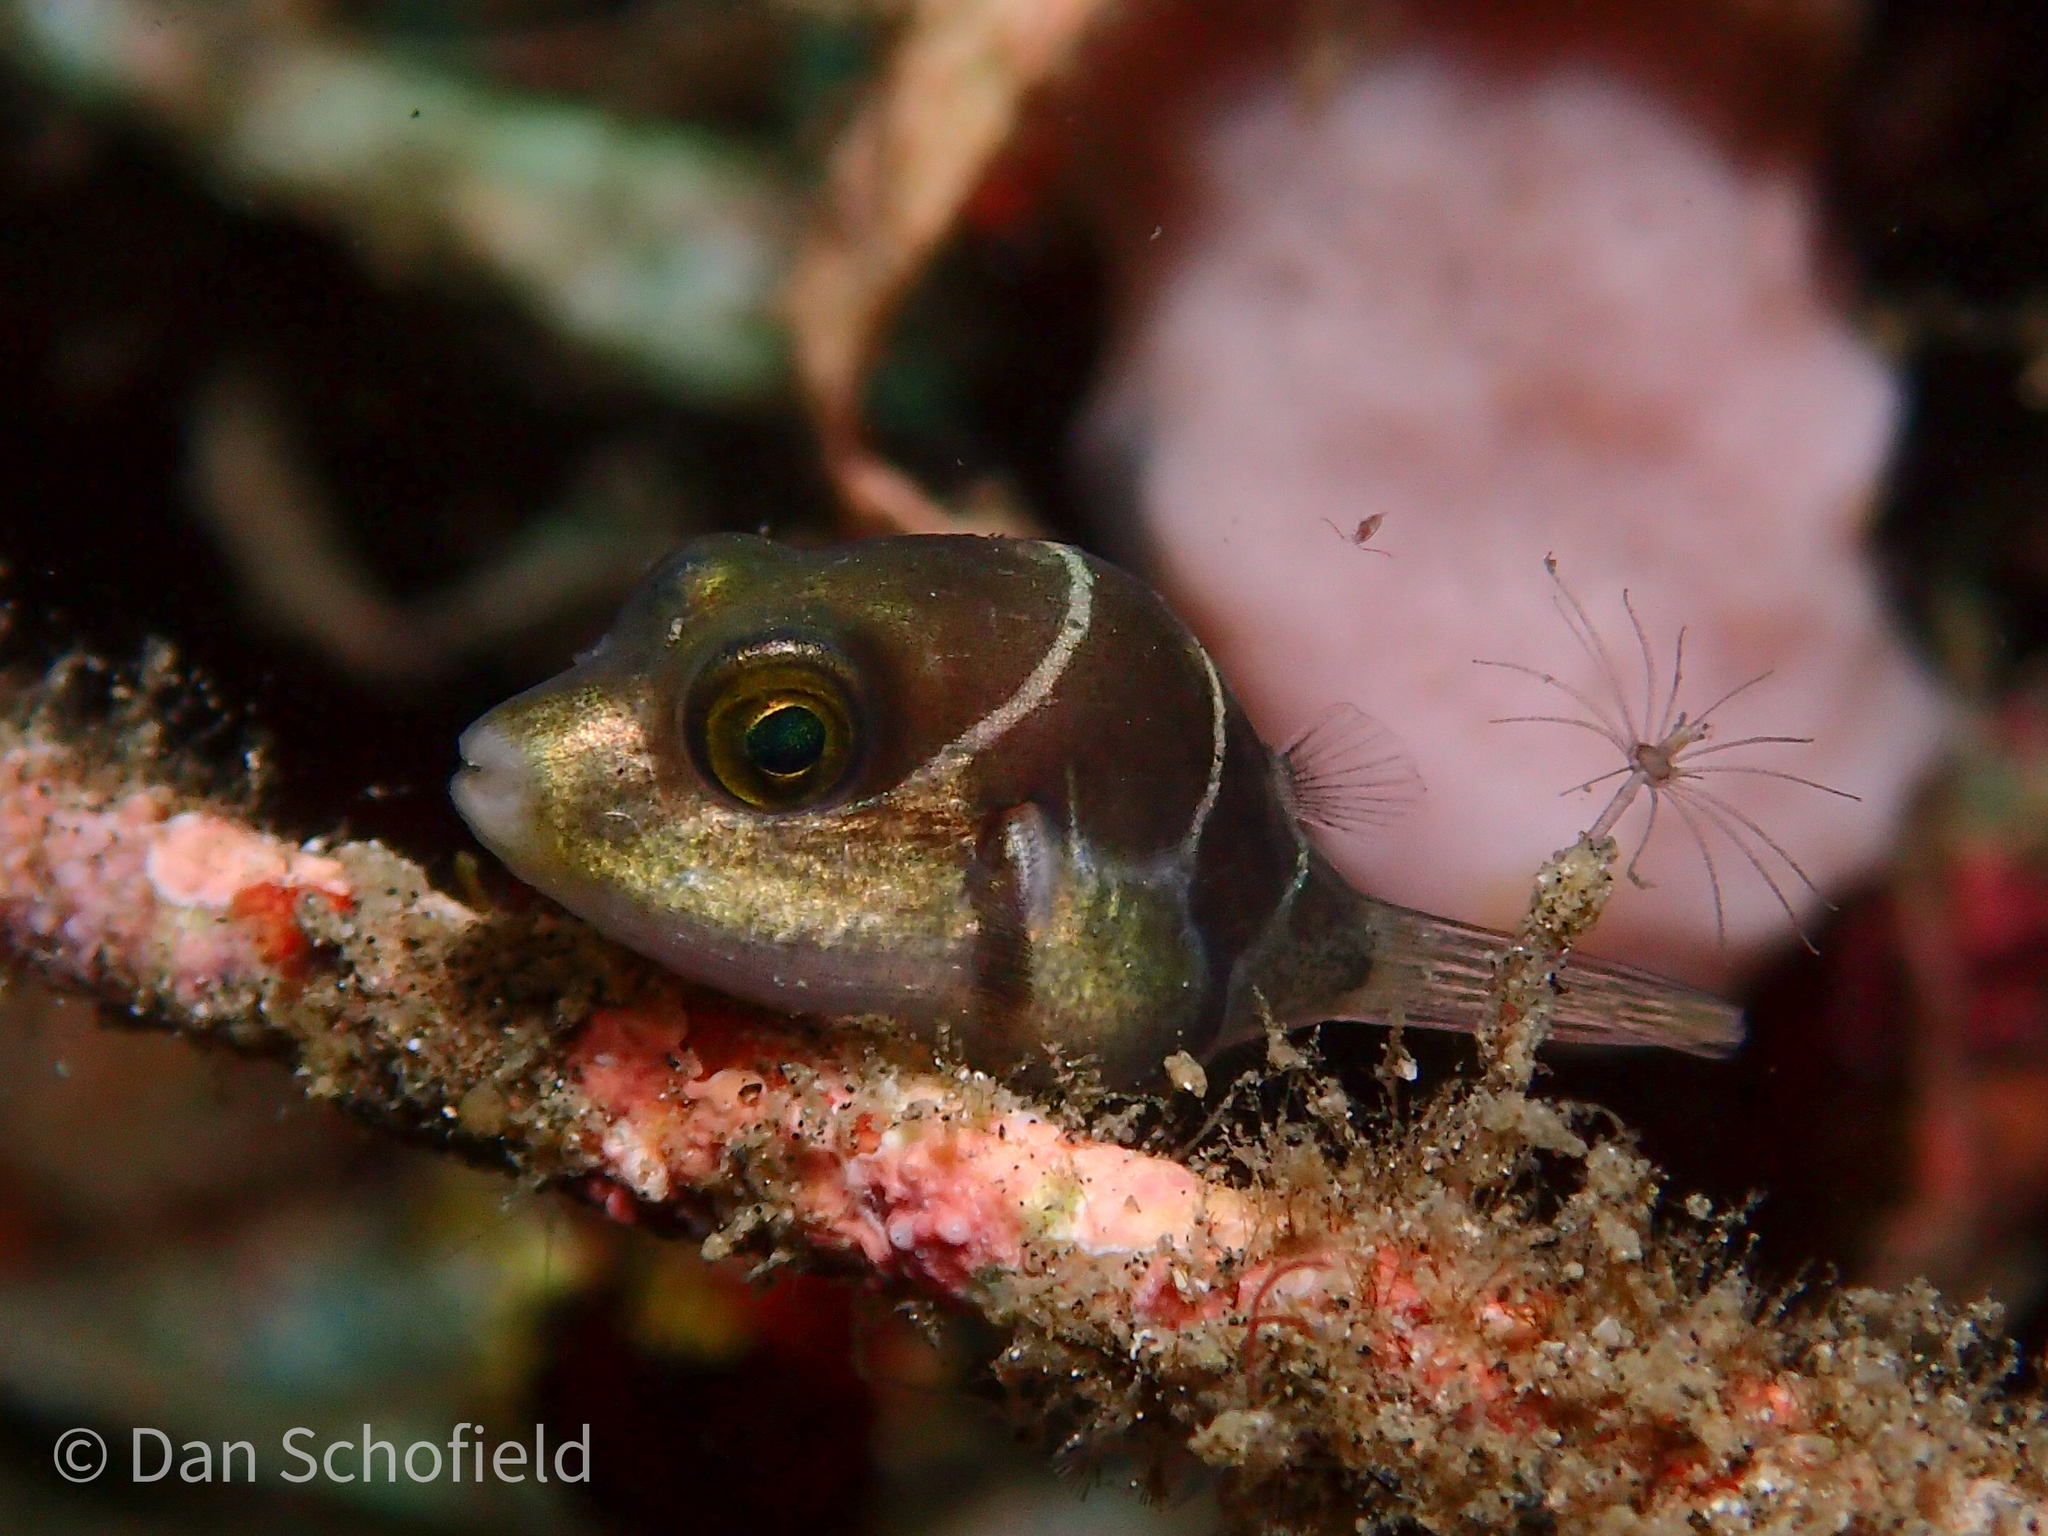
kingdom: Animalia
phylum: Chordata
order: Tetraodontiformes
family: Tetraodontidae
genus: Canthigaster
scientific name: Canthigaster valentini
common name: Banded toby
